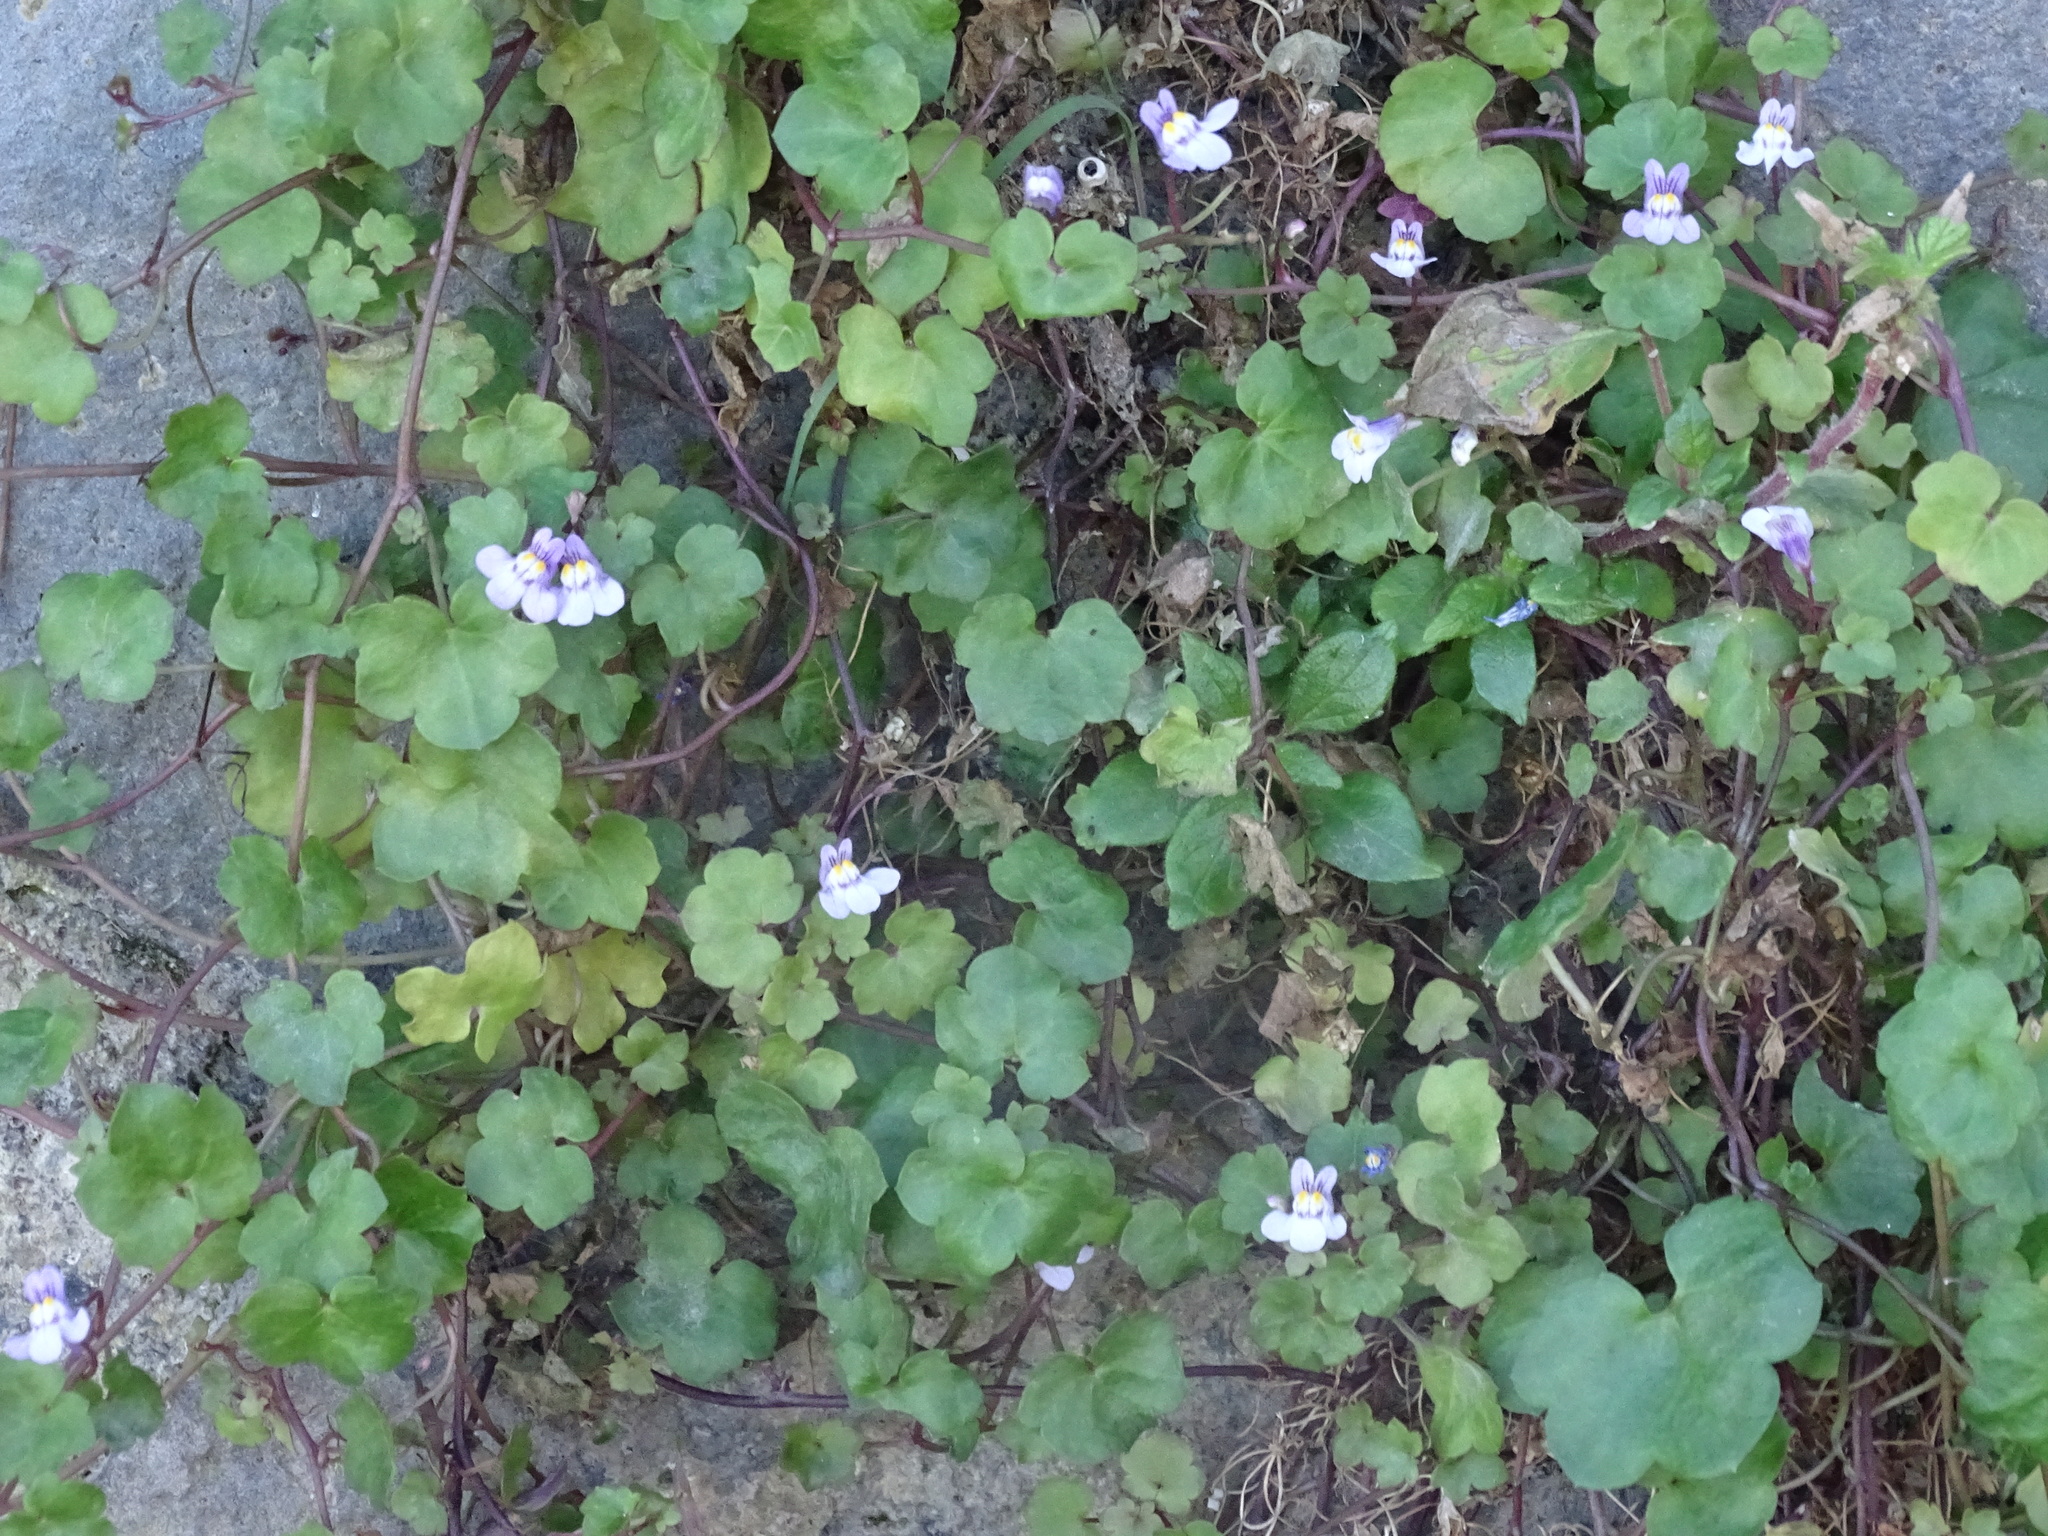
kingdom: Plantae
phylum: Tracheophyta
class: Magnoliopsida
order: Lamiales
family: Plantaginaceae
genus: Cymbalaria
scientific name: Cymbalaria muralis
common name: Ivy-leaved toadflax
